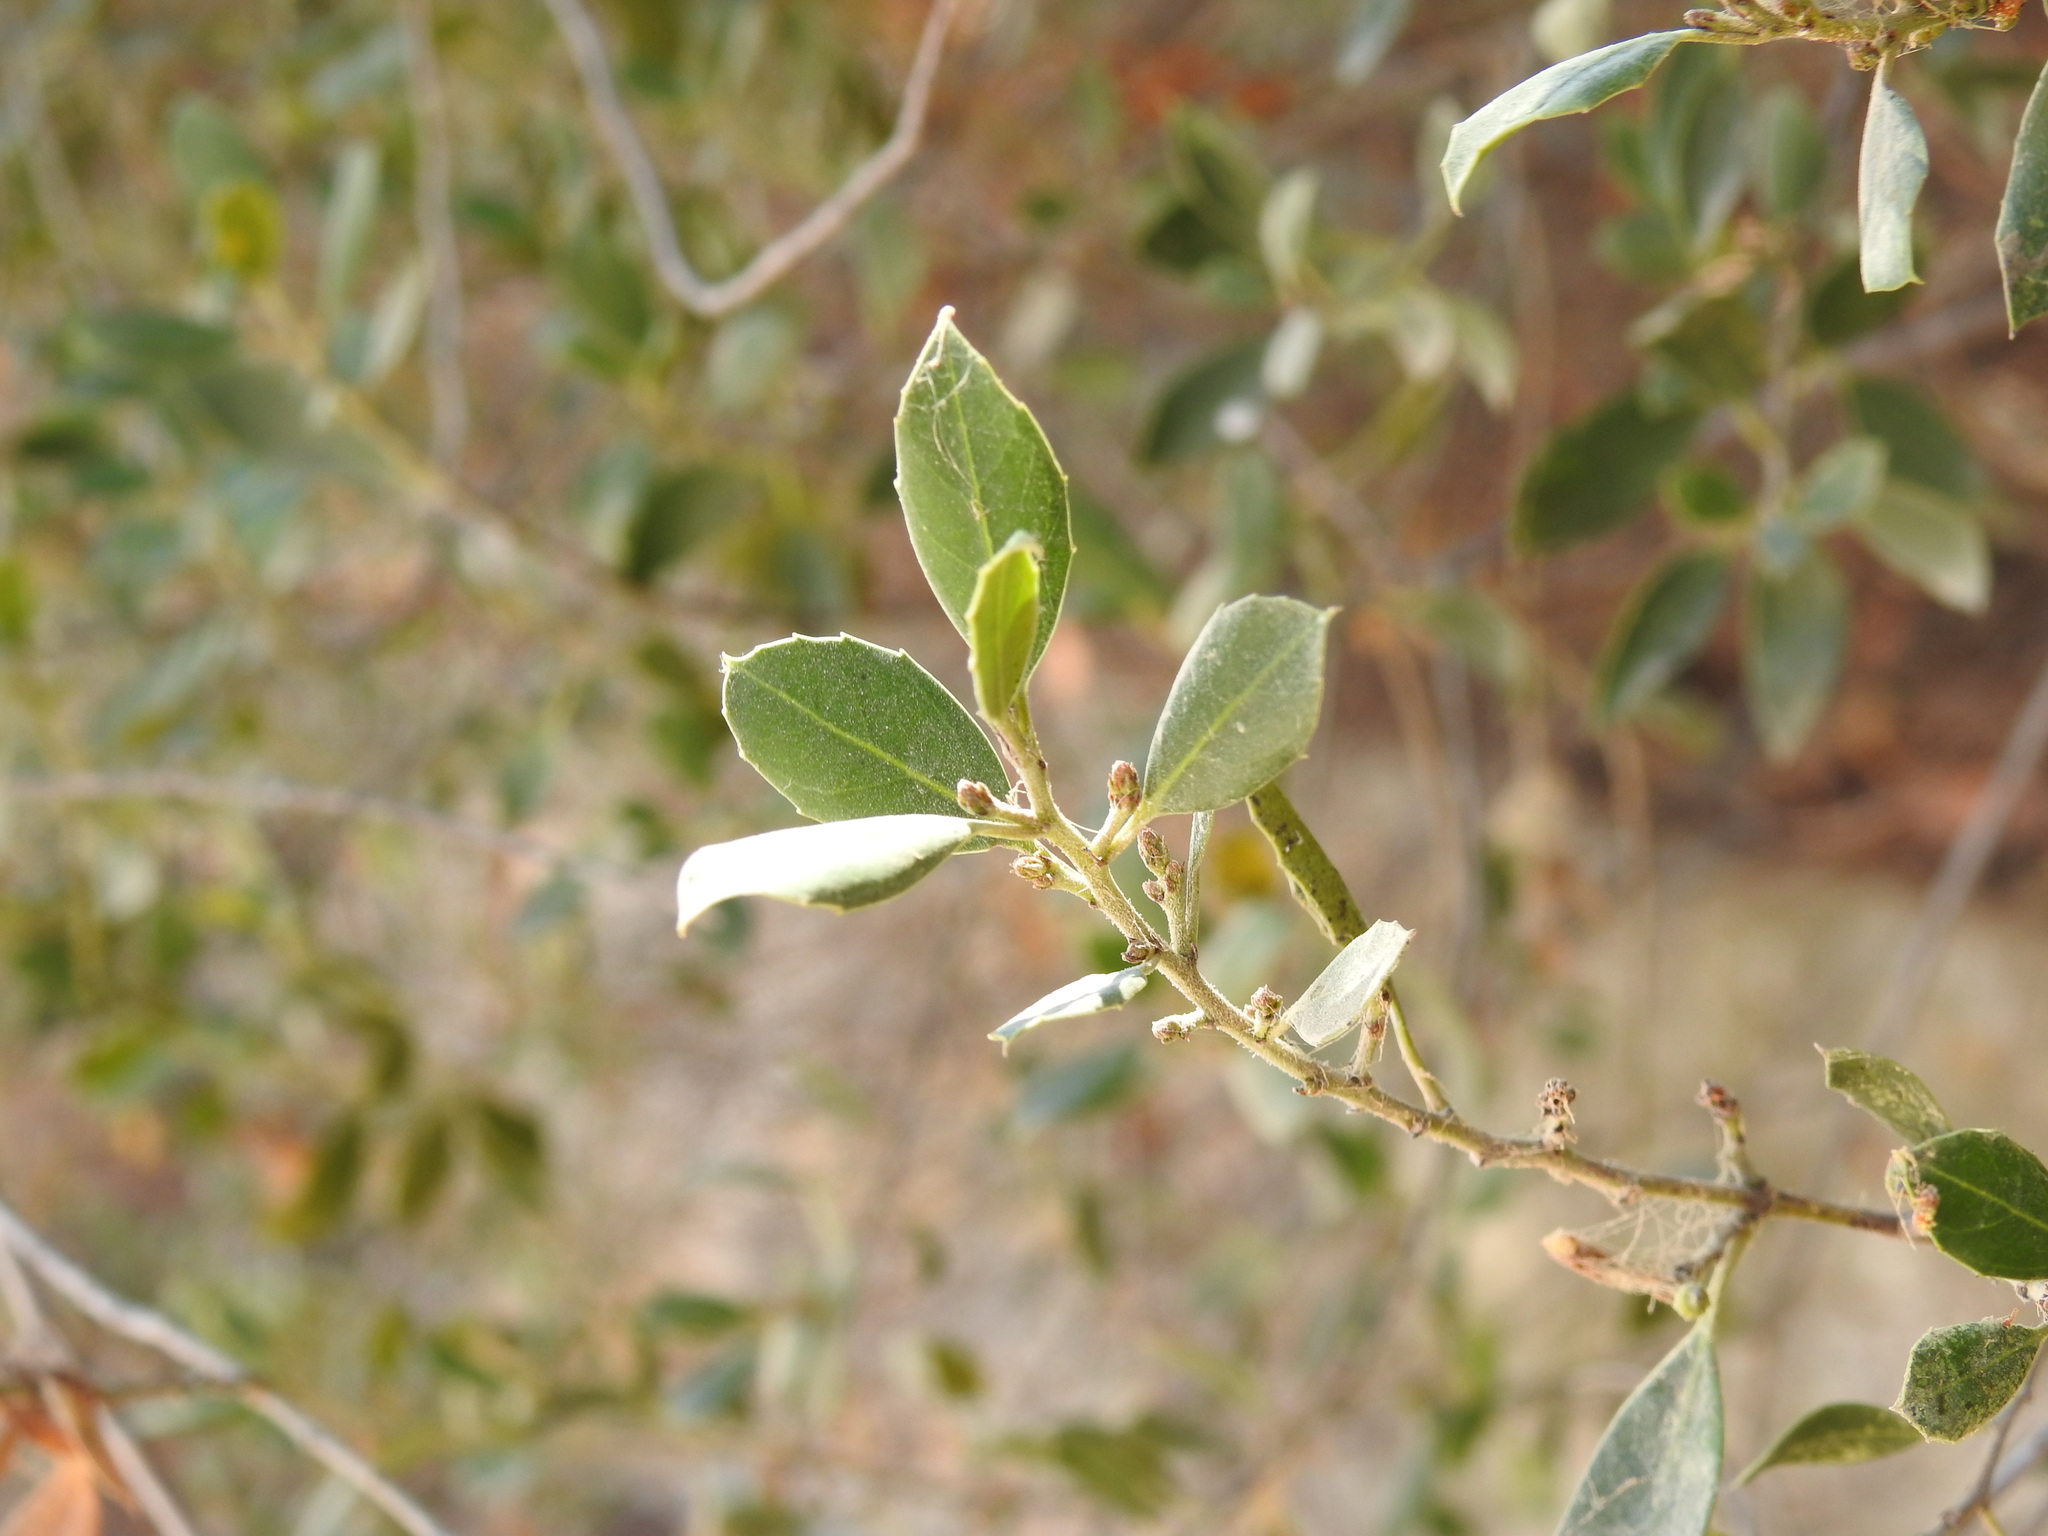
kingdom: Plantae
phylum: Tracheophyta
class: Magnoliopsida
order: Rosales
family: Rhamnaceae
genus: Rhamnus
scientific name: Rhamnus alaternus
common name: Mediterranean buckthorn
